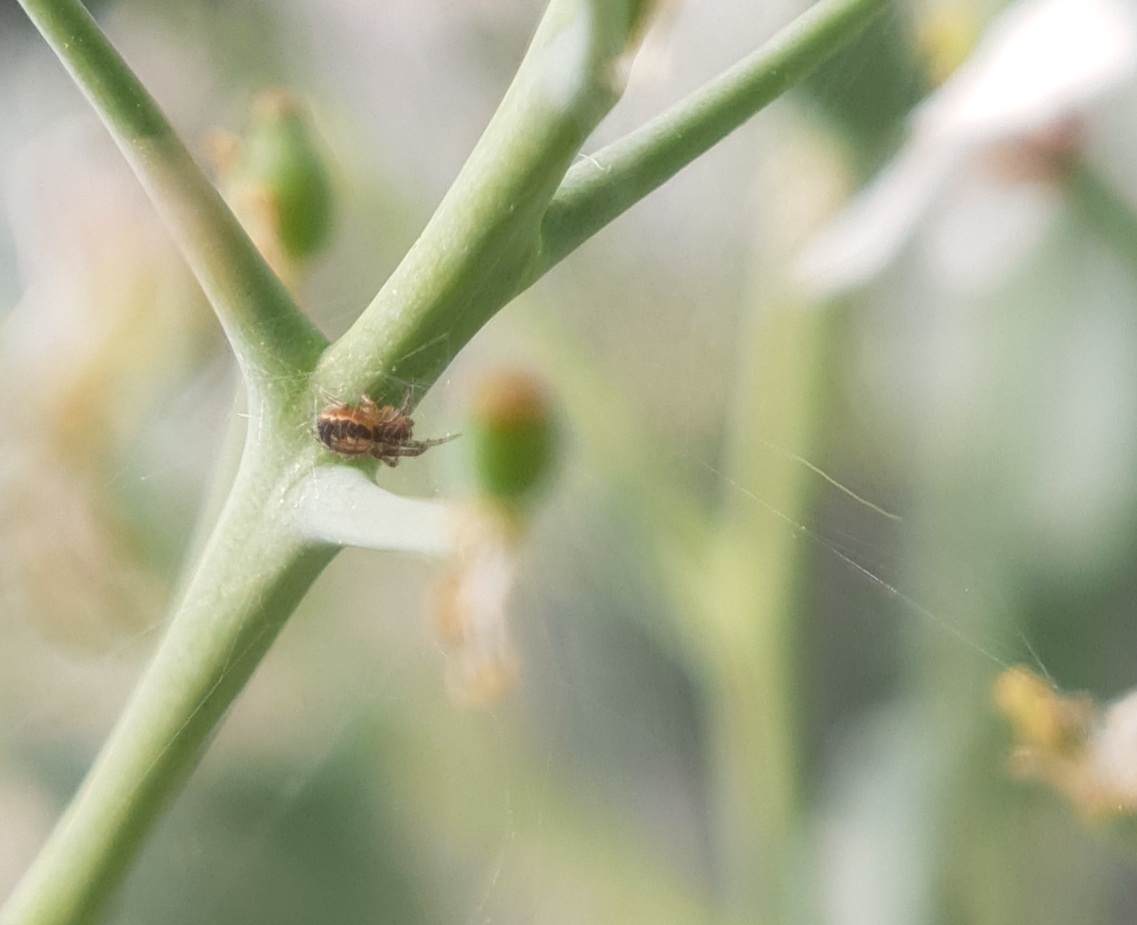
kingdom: Animalia
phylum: Arthropoda
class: Arachnida
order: Araneae
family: Araneidae
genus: Zygiella
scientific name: Zygiella x-notata
